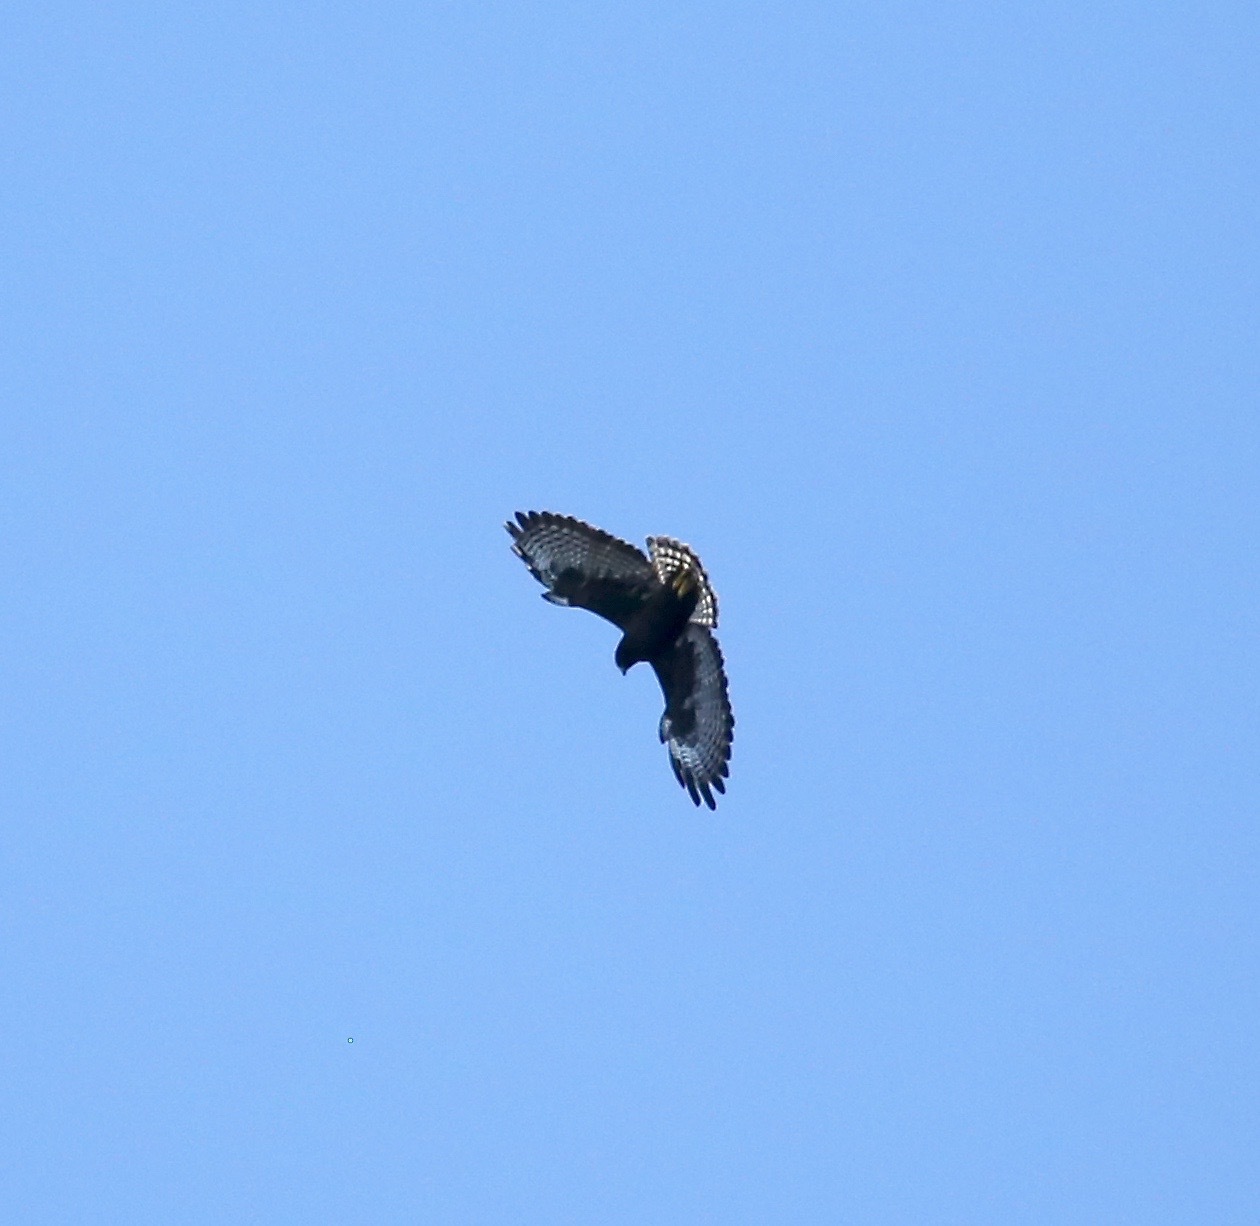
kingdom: Animalia
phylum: Chordata
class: Aves
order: Accipitriformes
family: Accipitridae
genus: Buteo
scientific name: Buteo brachyurus
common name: Short-tailed hawk
